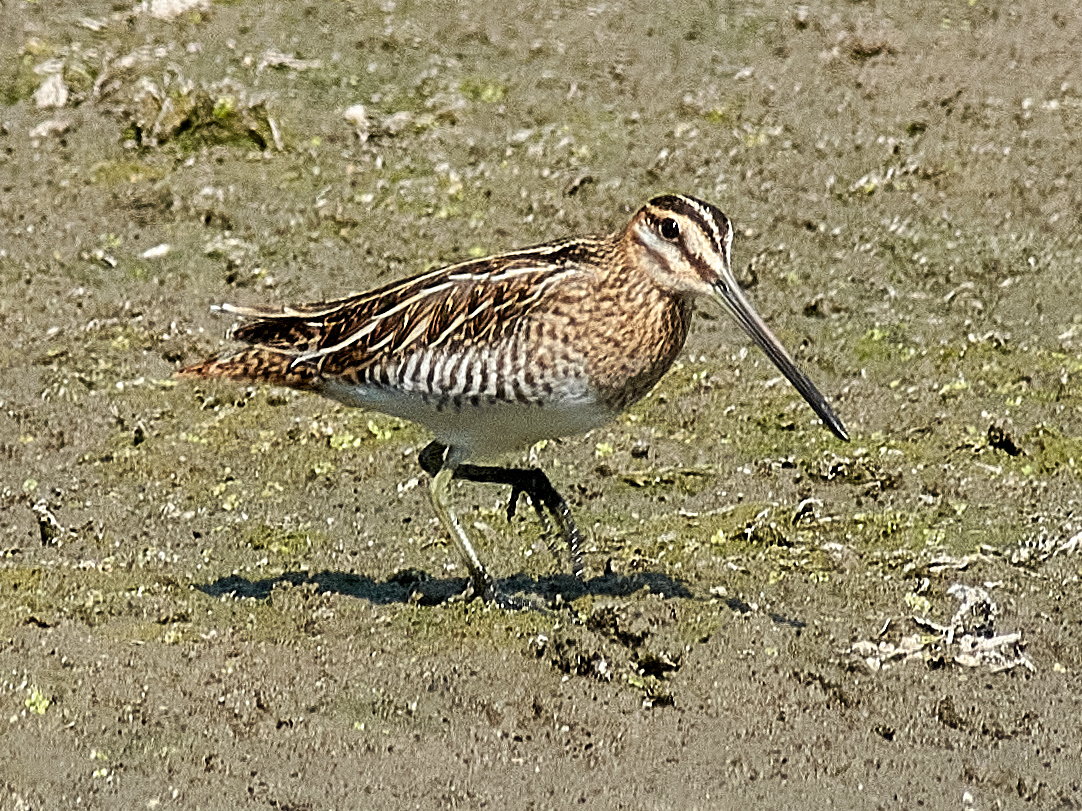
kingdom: Animalia
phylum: Chordata
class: Aves
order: Charadriiformes
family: Scolopacidae
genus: Gallinago
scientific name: Gallinago gallinago
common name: Common snipe
